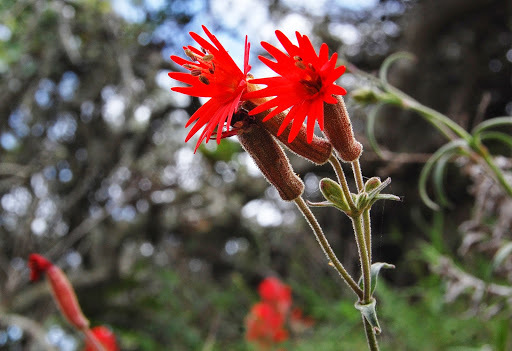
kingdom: Plantae
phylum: Tracheophyta
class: Magnoliopsida
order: Caryophyllales
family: Caryophyllaceae
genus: Silene
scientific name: Silene laciniata
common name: Indian-pink
